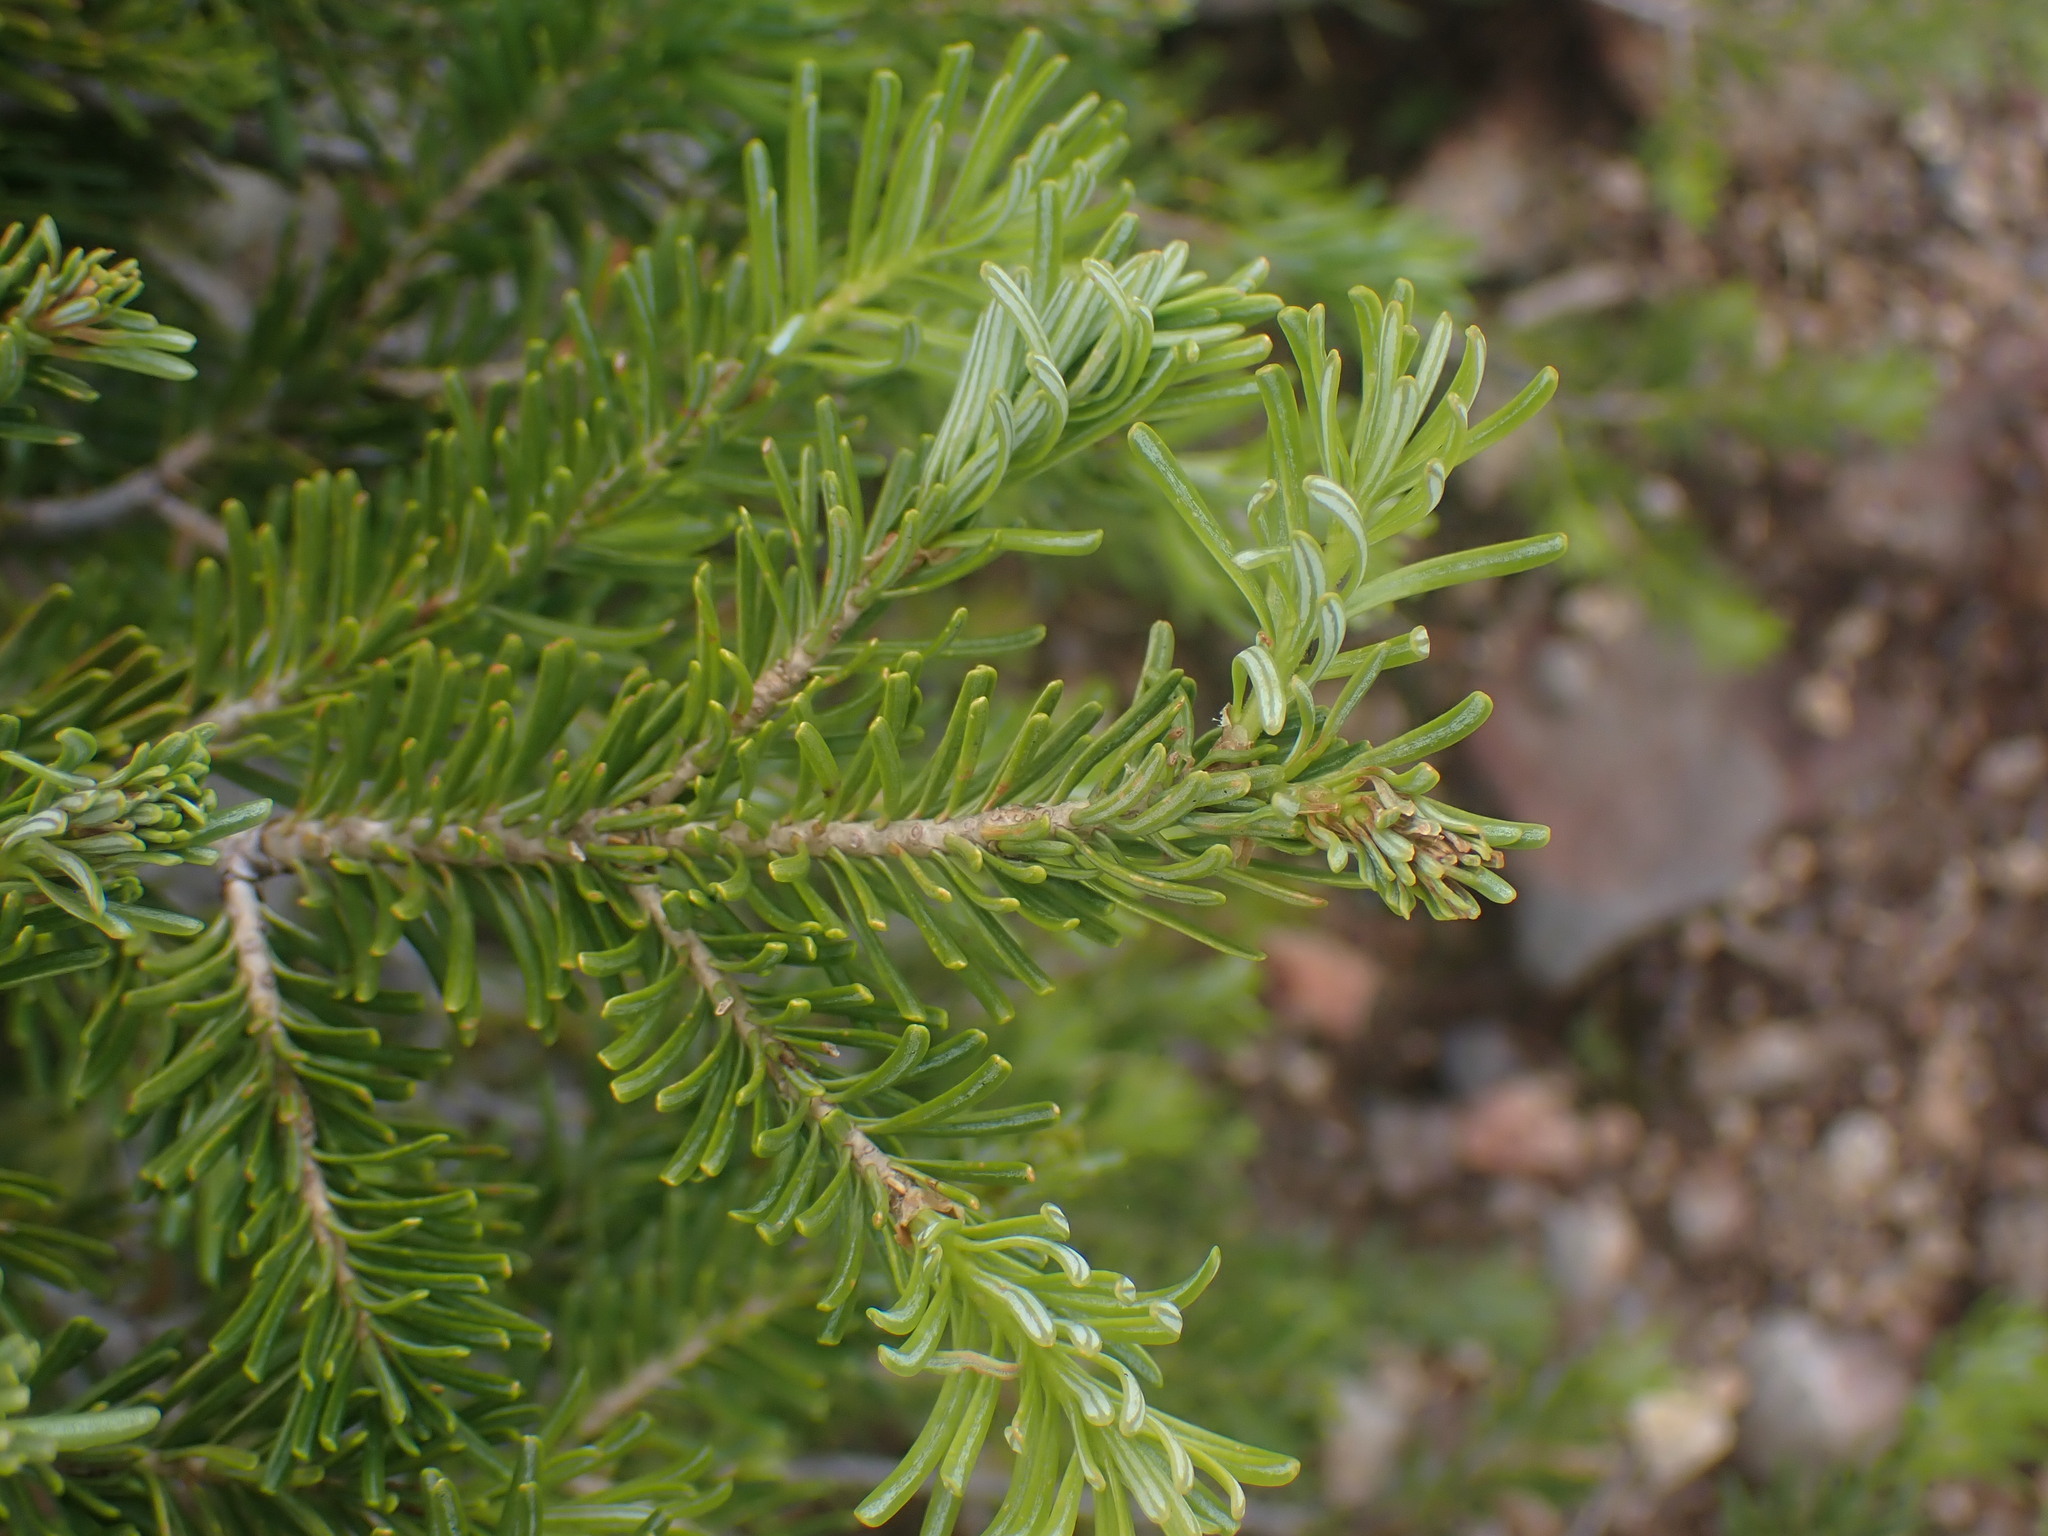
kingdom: Plantae
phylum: Tracheophyta
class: Pinopsida
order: Pinales
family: Pinaceae
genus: Abies
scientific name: Abies lasiocarpa
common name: Subalpine fir
